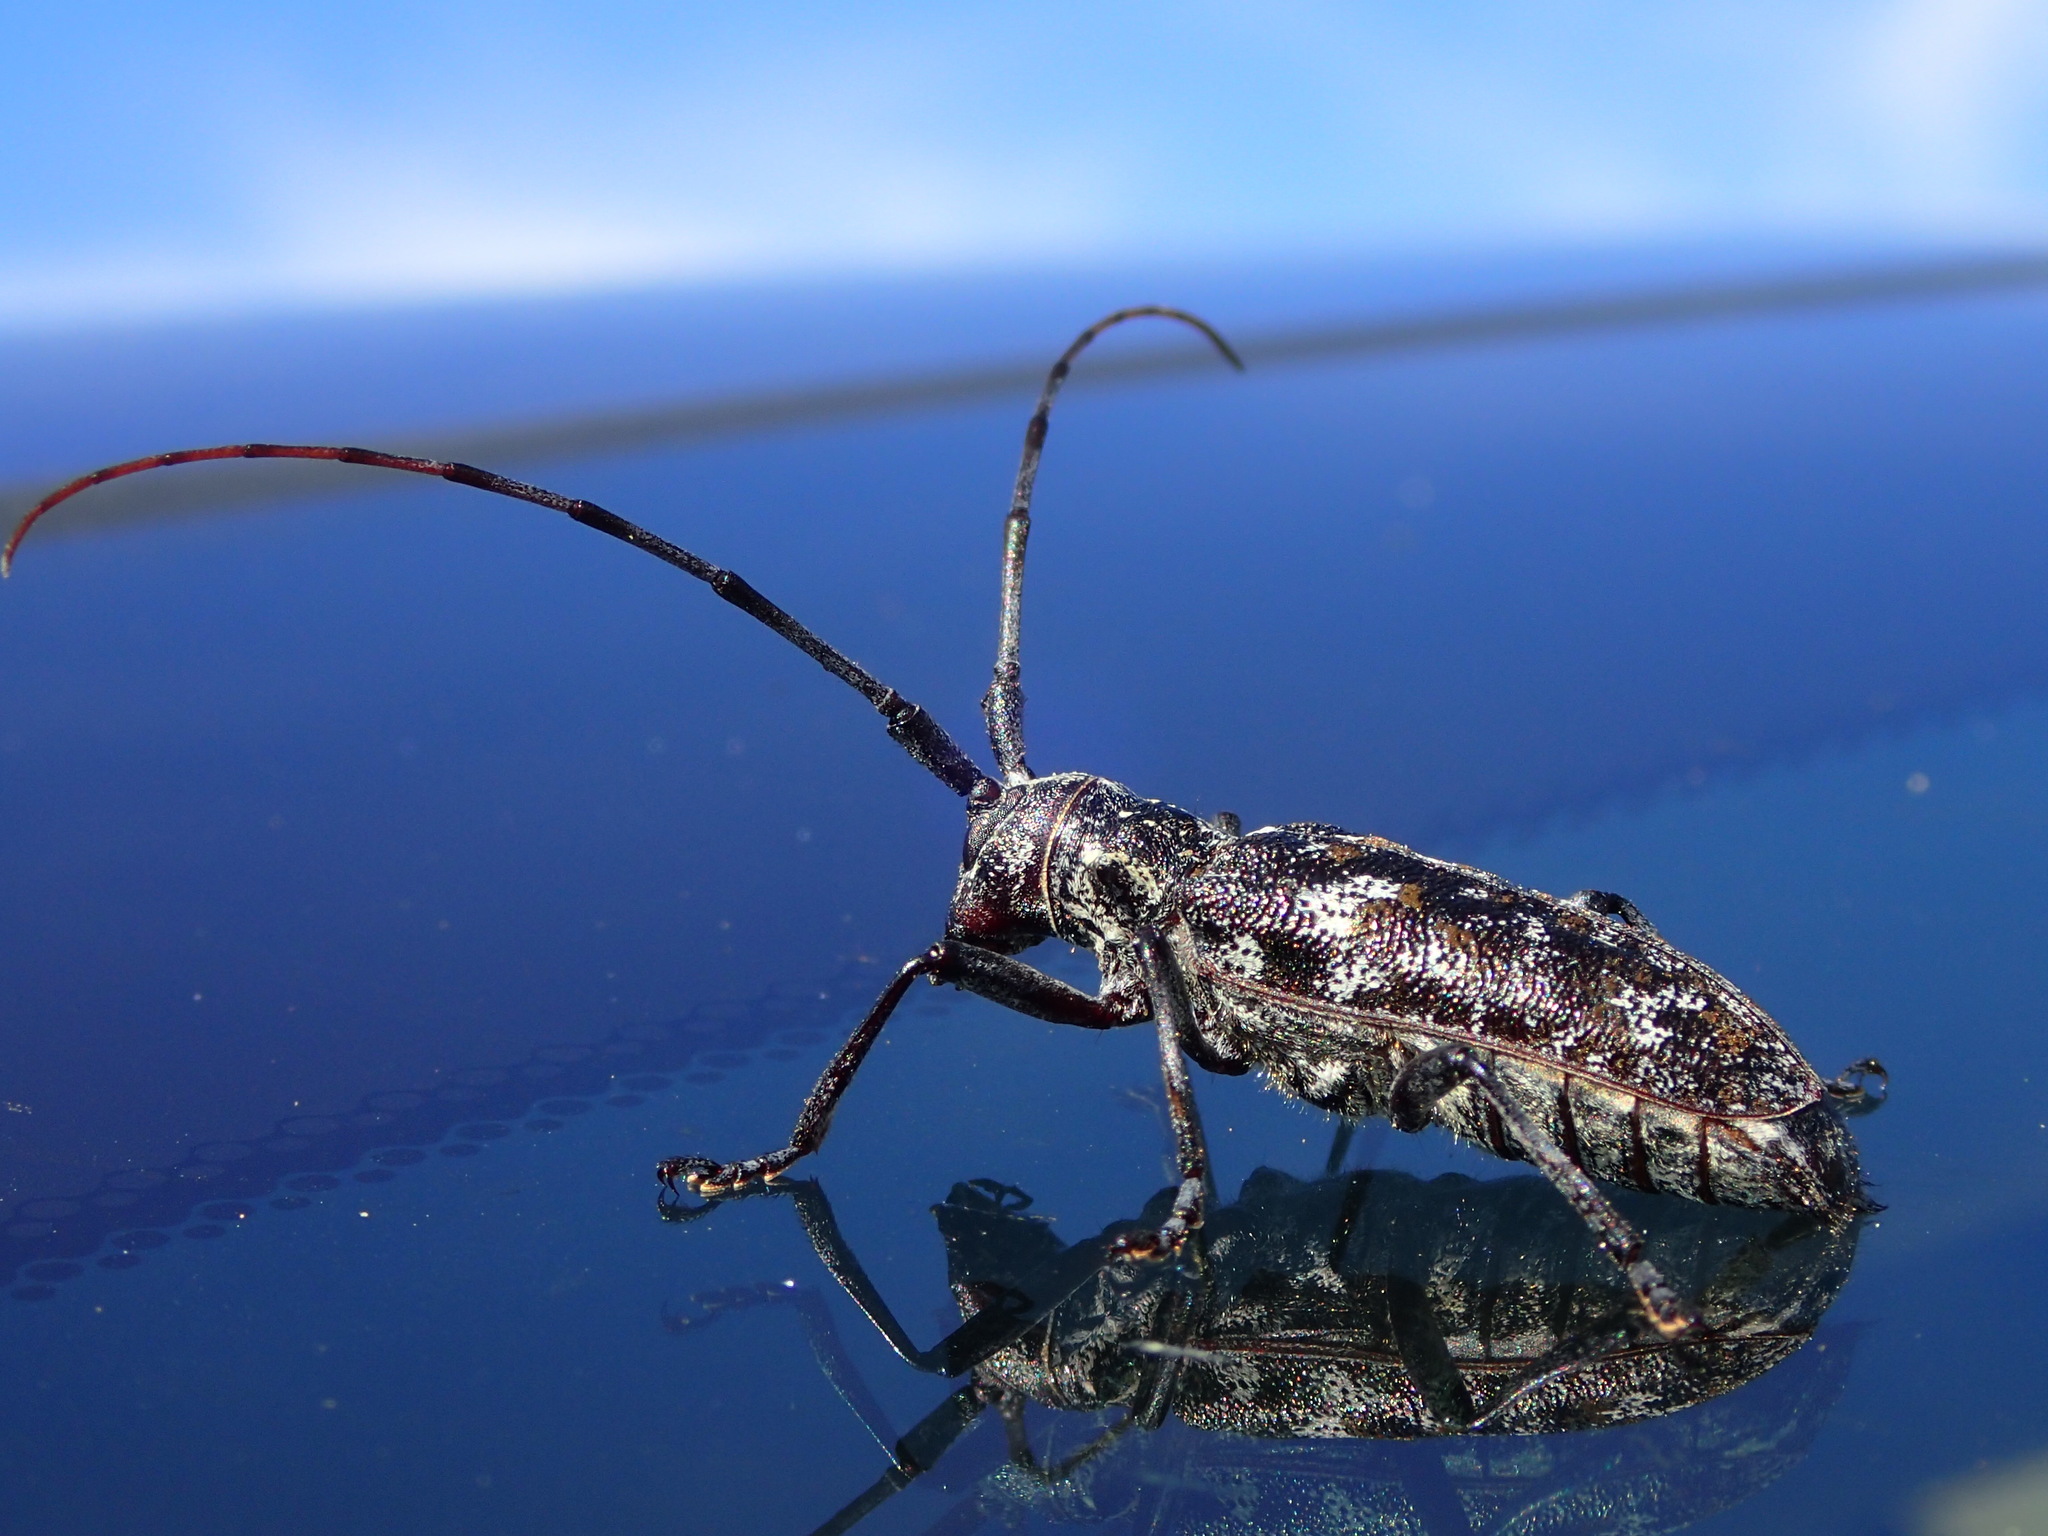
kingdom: Animalia
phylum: Arthropoda
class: Insecta
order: Coleoptera
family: Cerambycidae
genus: Monochamus
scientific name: Monochamus clamator
